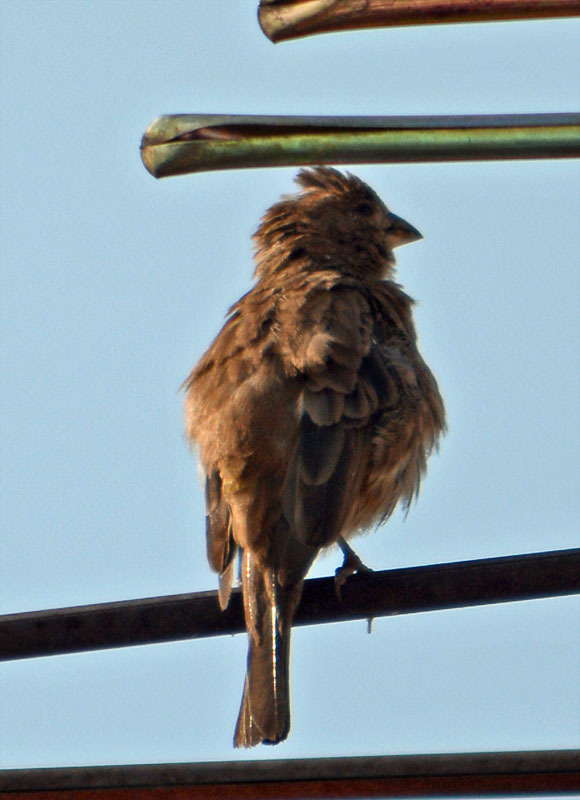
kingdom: Animalia
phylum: Chordata
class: Aves
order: Passeriformes
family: Fringillidae
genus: Haemorhous
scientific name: Haemorhous mexicanus
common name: House finch
